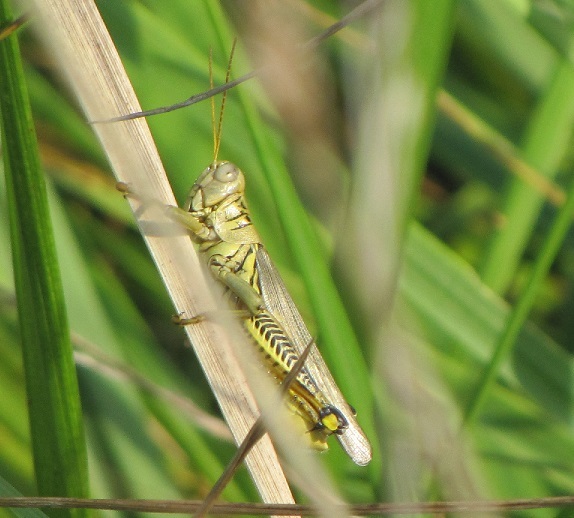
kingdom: Animalia
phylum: Arthropoda
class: Insecta
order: Orthoptera
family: Acrididae
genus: Melanoplus
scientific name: Melanoplus differentialis
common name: Differential grasshopper
